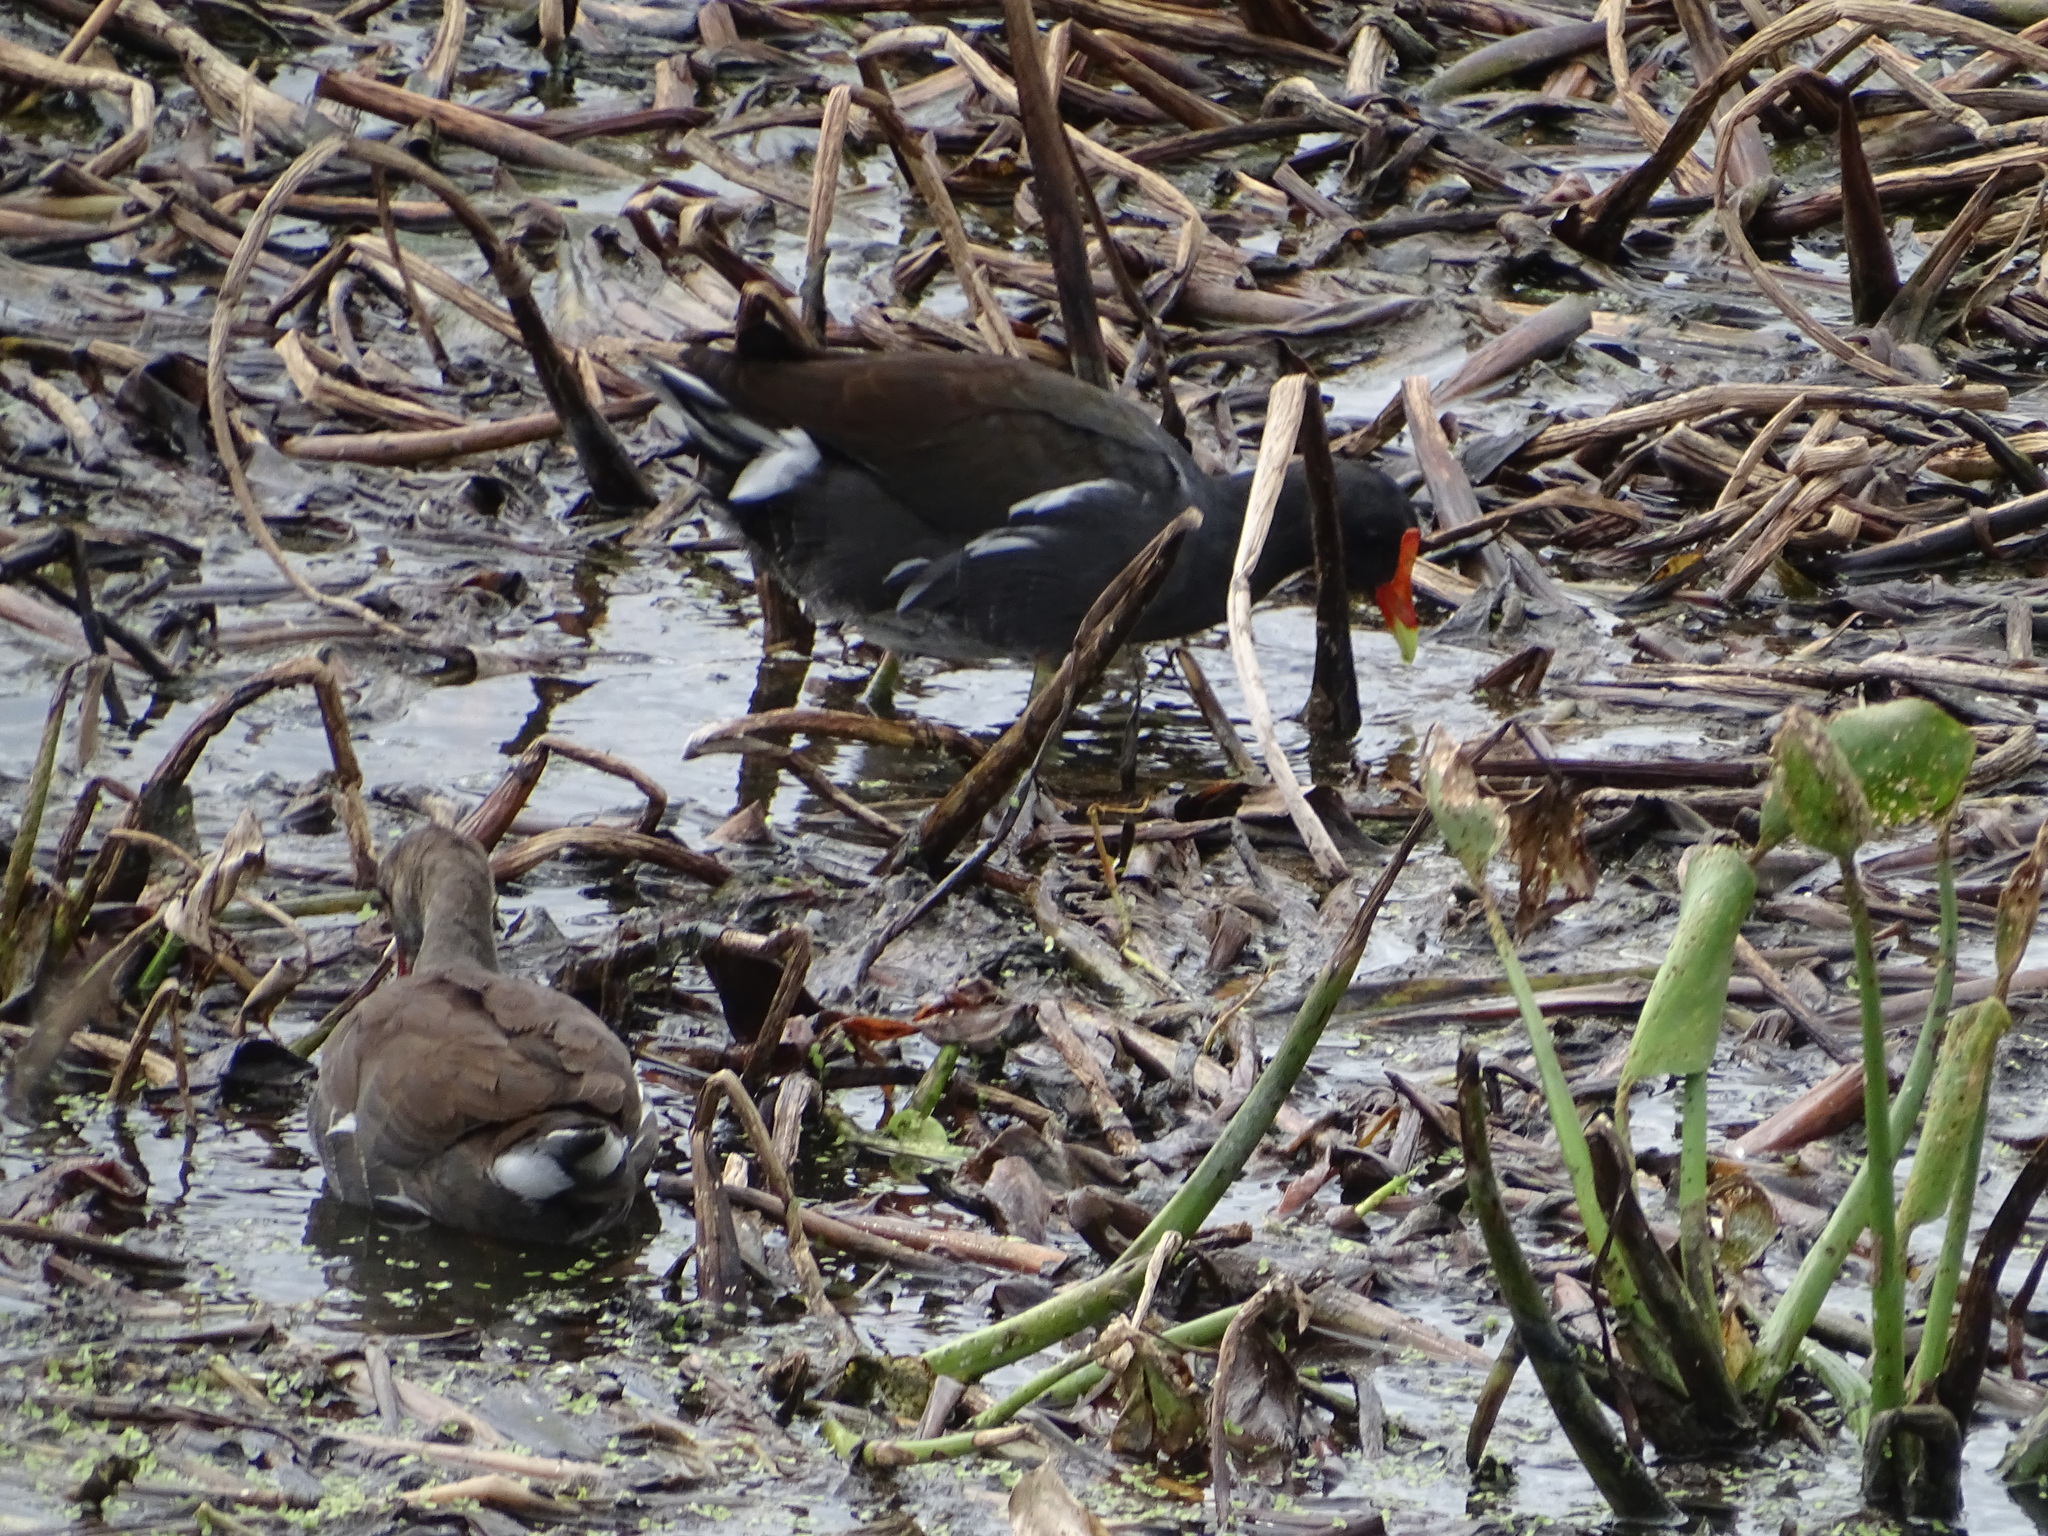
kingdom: Animalia
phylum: Chordata
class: Aves
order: Gruiformes
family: Rallidae
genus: Gallinula
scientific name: Gallinula chloropus
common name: Common moorhen
